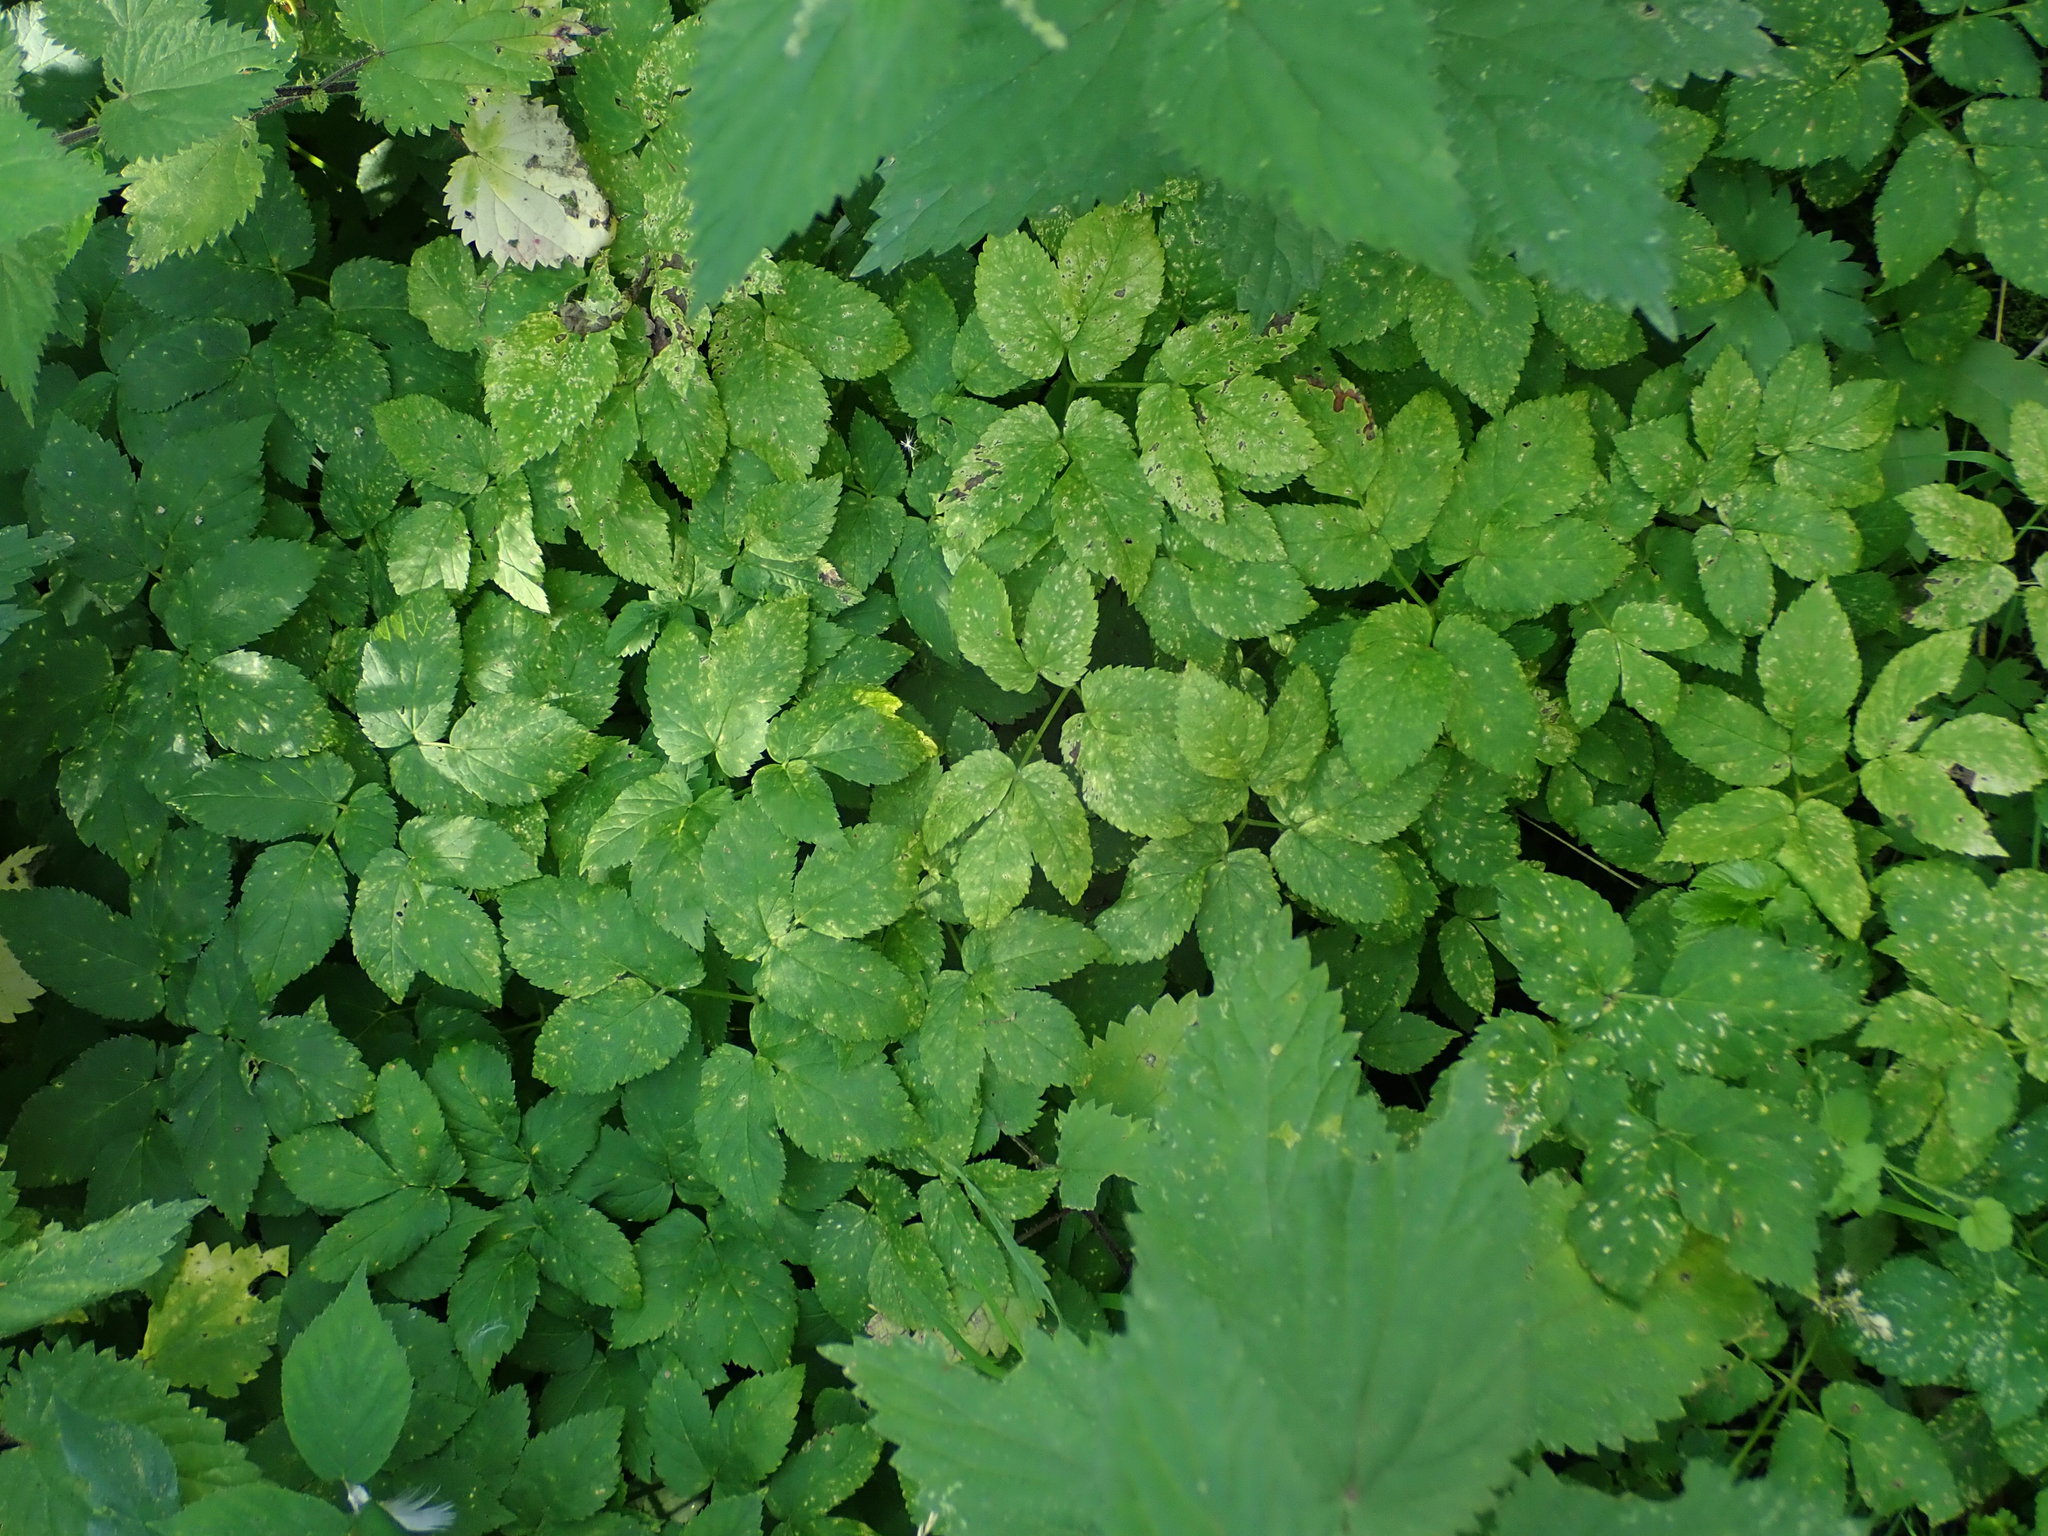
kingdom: Plantae
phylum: Tracheophyta
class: Magnoliopsida
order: Apiales
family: Apiaceae
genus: Aegopodium
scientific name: Aegopodium podagraria
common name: Ground-elder
